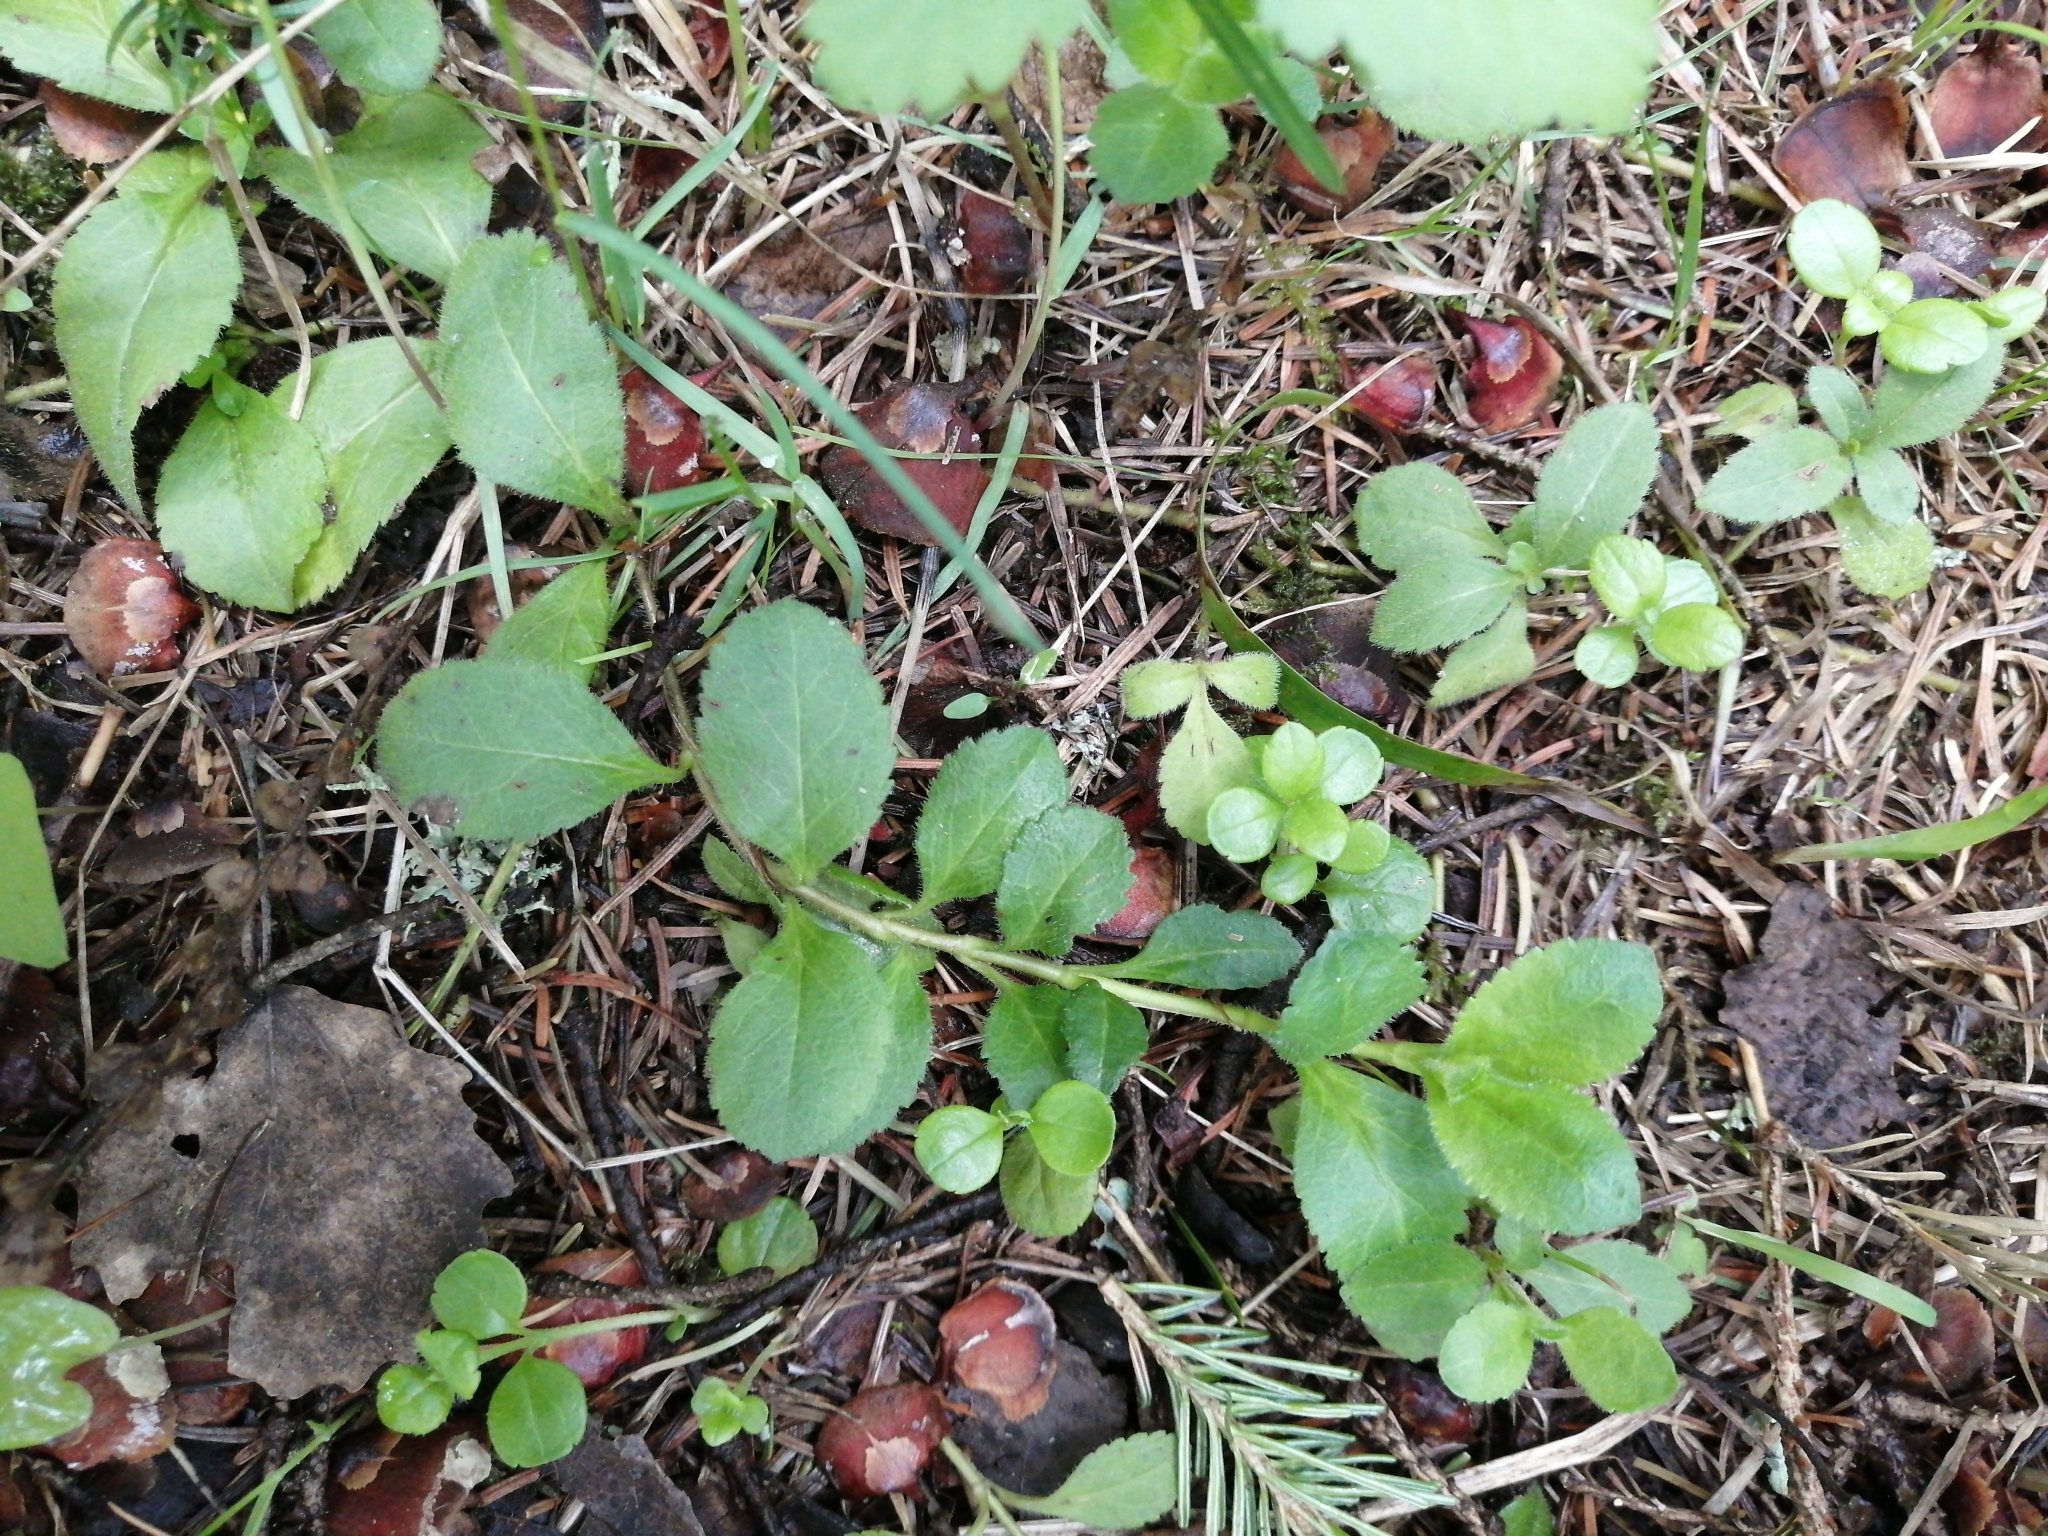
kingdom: Plantae
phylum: Tracheophyta
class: Magnoliopsida
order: Lamiales
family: Plantaginaceae
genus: Veronica
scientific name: Veronica officinalis
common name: Common speedwell
